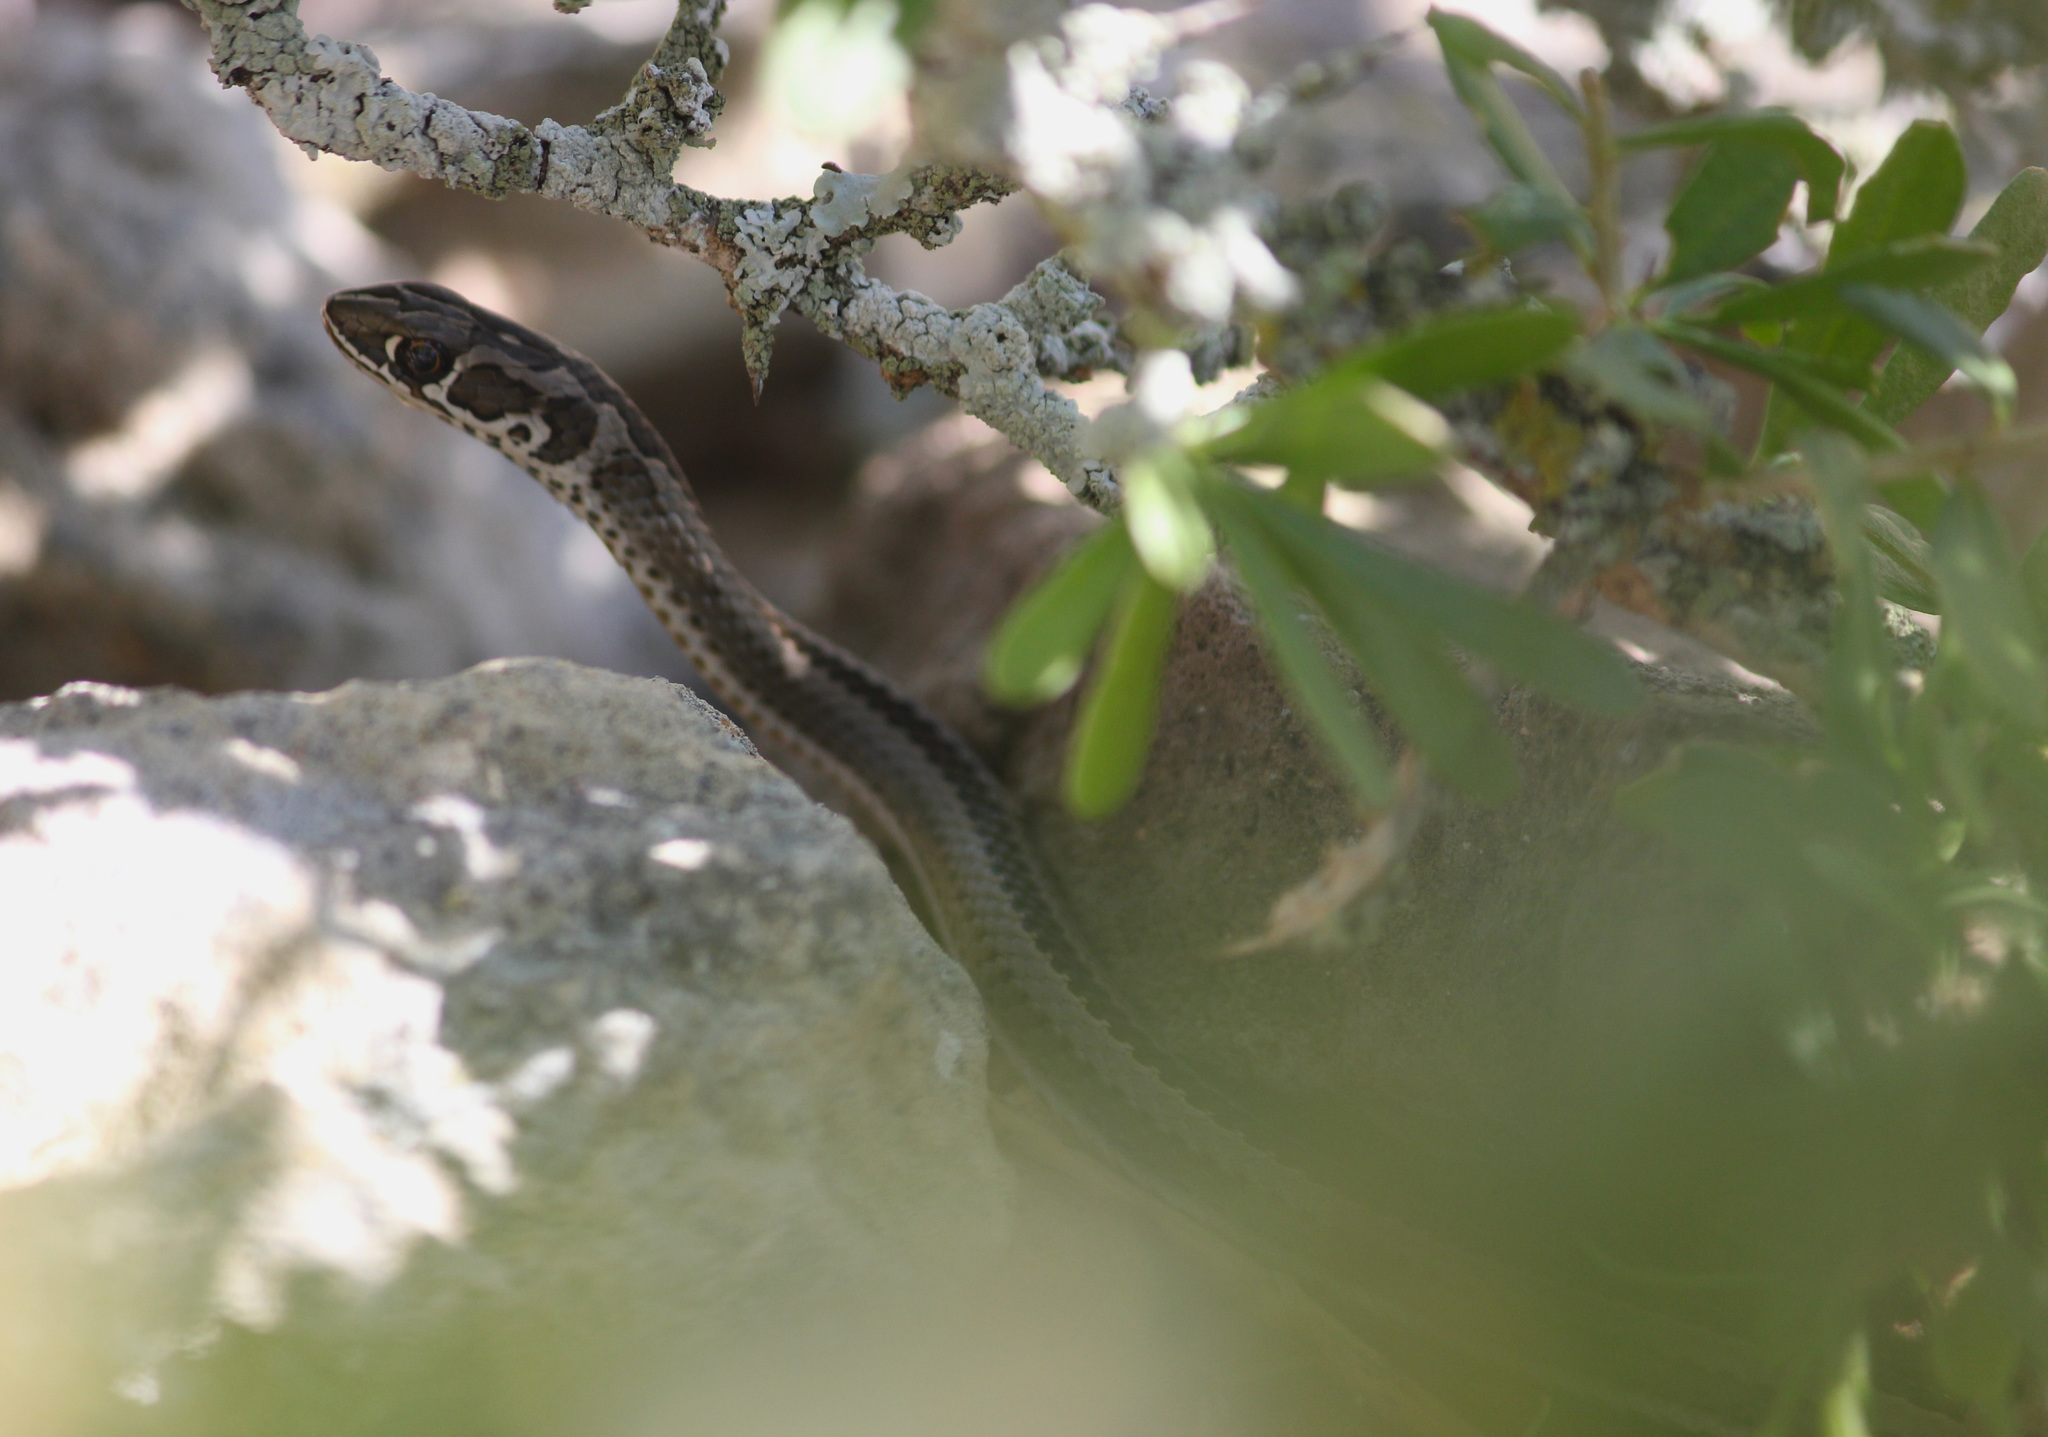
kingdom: Animalia
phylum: Chordata
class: Squamata
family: Psammophiidae
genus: Psammophis
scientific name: Psammophis crucifer
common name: Cross-marked grass snake
